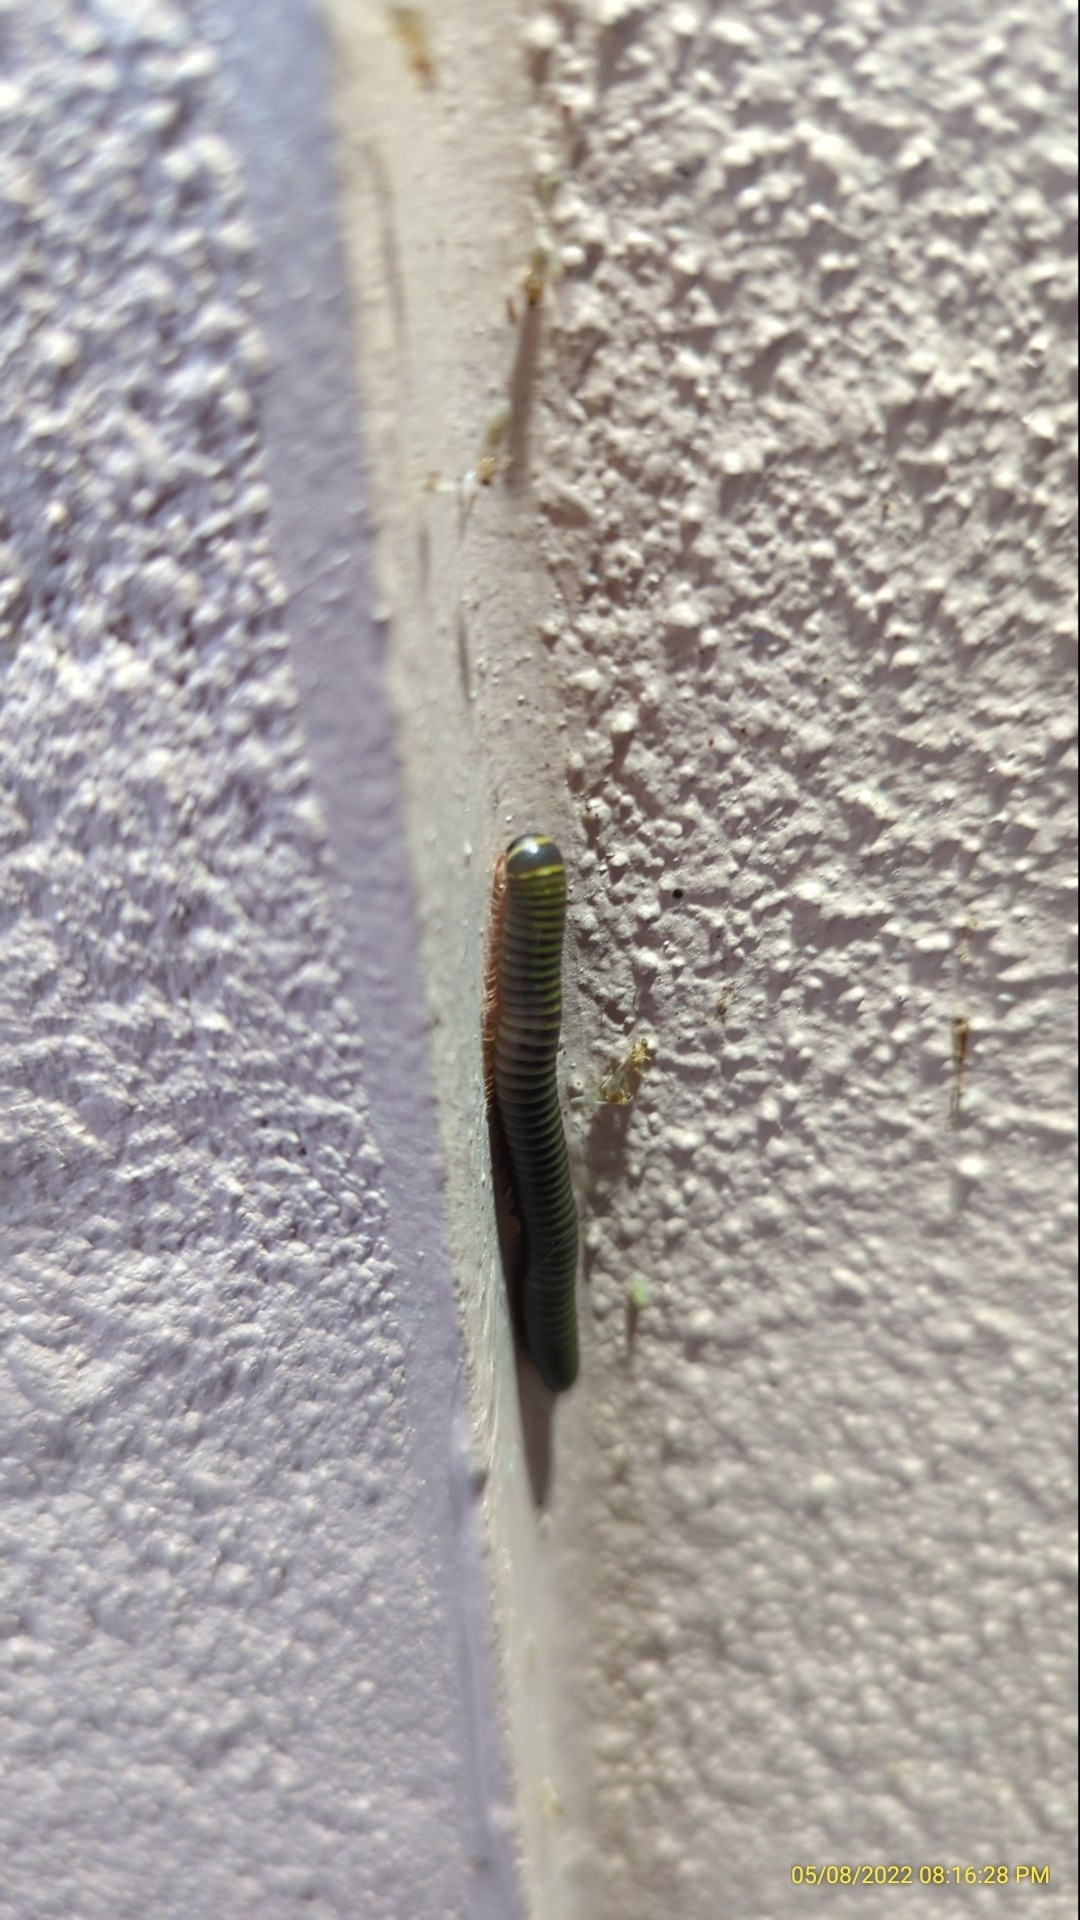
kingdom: Animalia
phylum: Arthropoda
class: Diplopoda
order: Spirobolida
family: Rhinocricidae
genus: Anadenobolus
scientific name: Anadenobolus monilicornis
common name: Caribbean millipede
